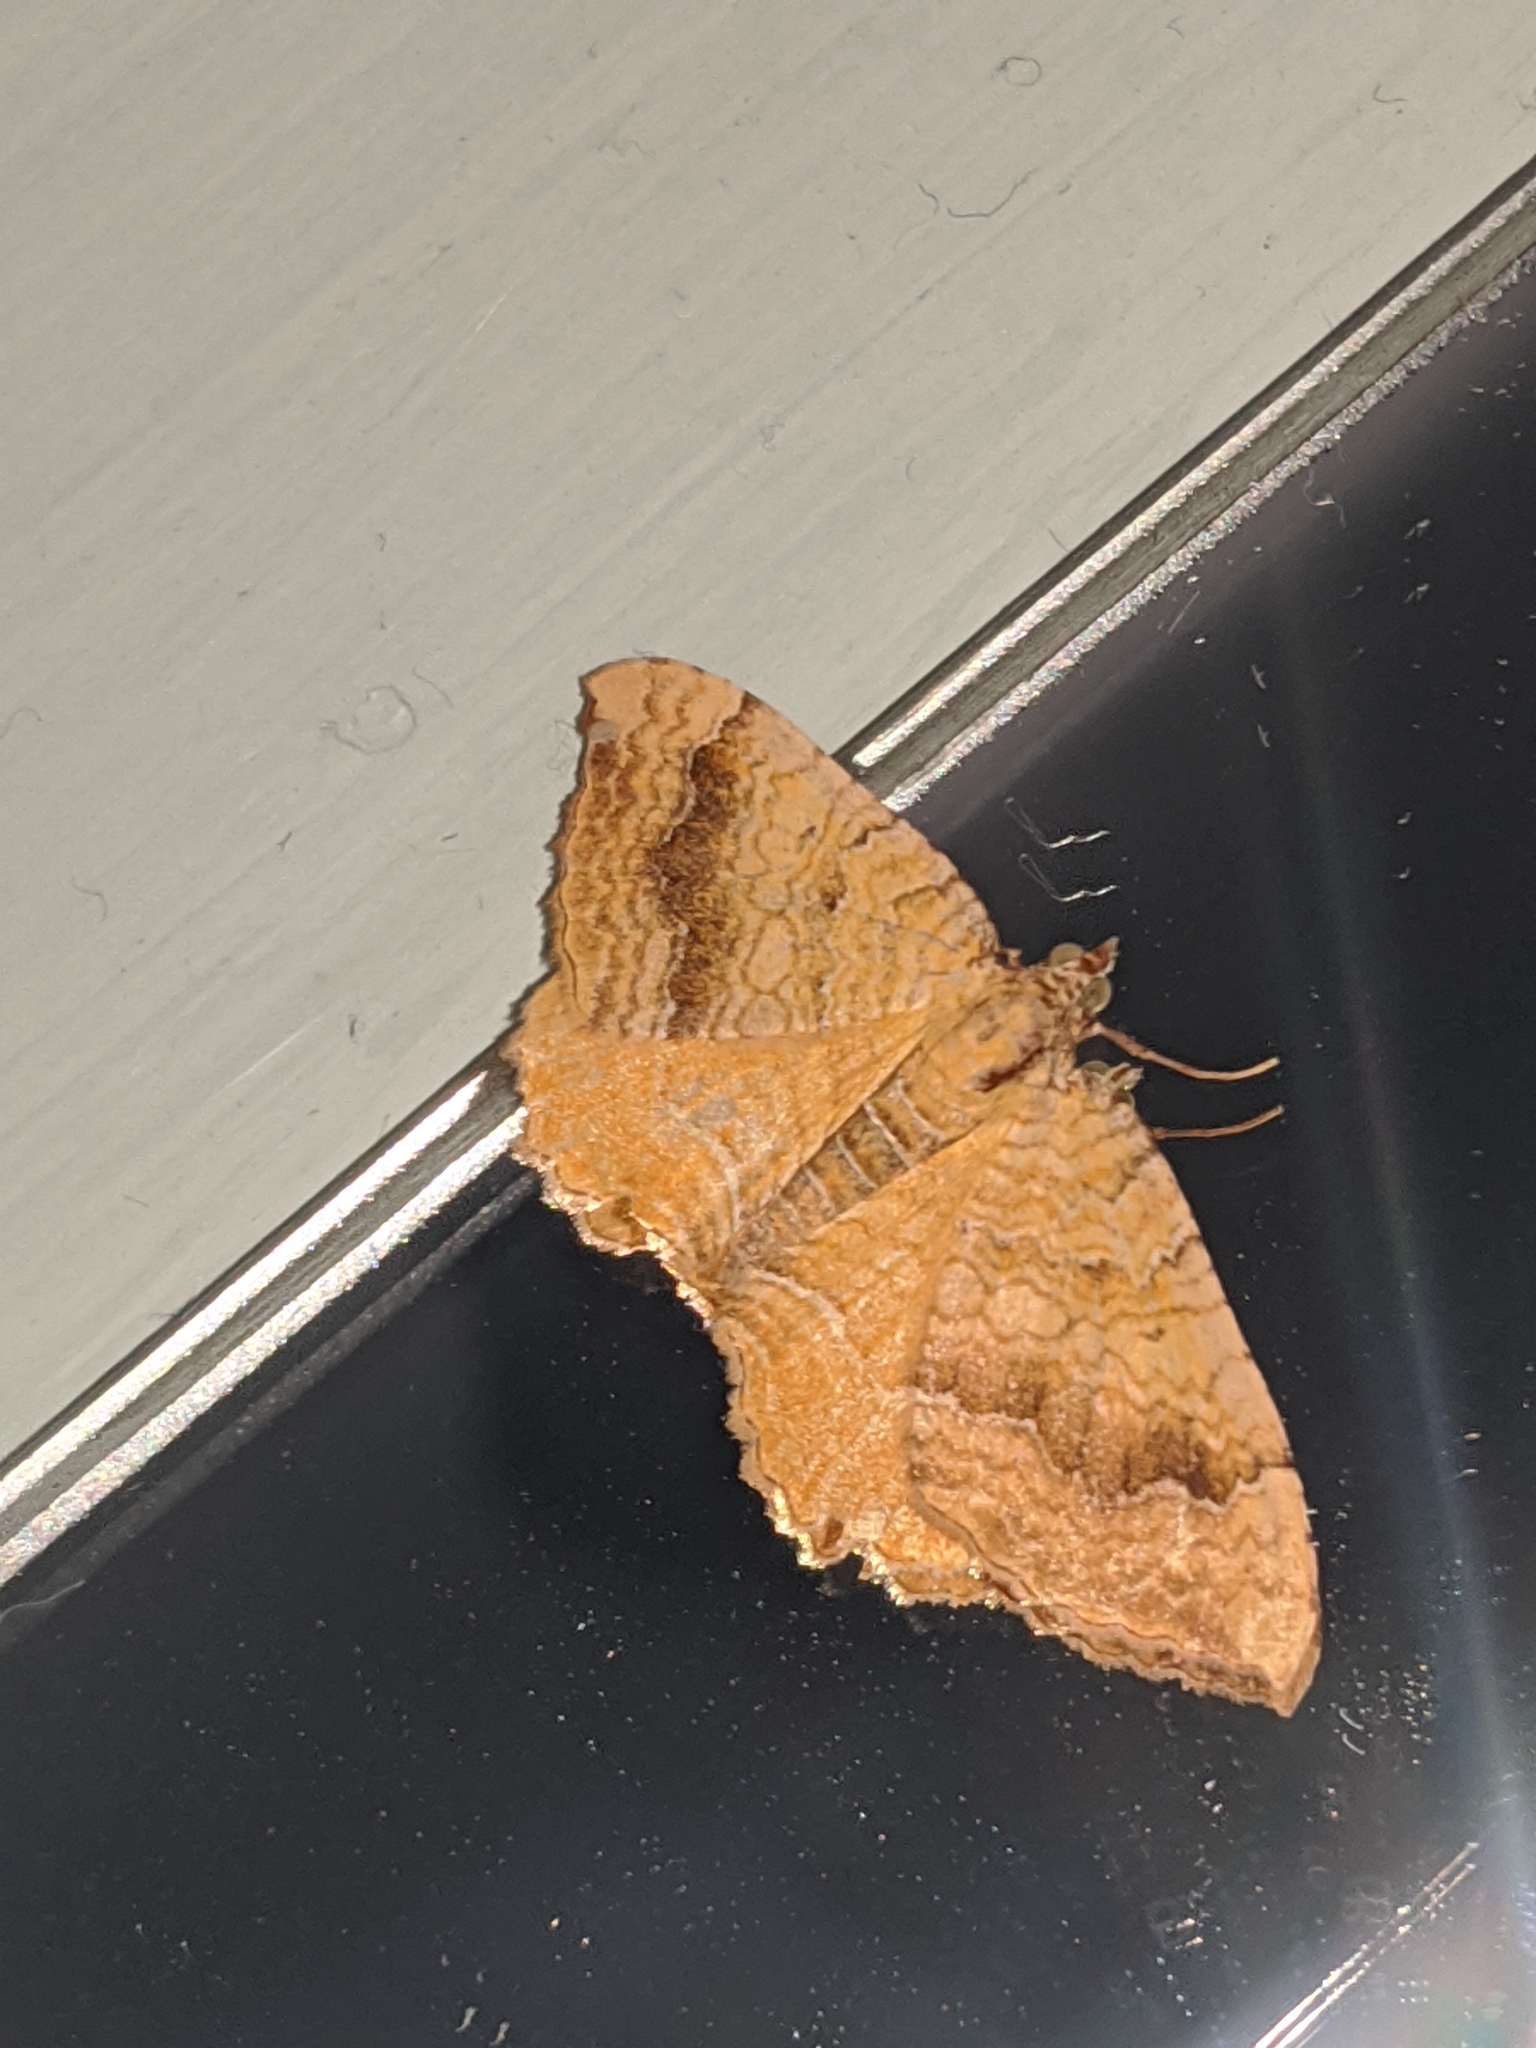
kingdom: Animalia
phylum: Arthropoda
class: Insecta
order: Lepidoptera
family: Geometridae
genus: Camptogramma
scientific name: Camptogramma bilineata
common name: Yellow shell
